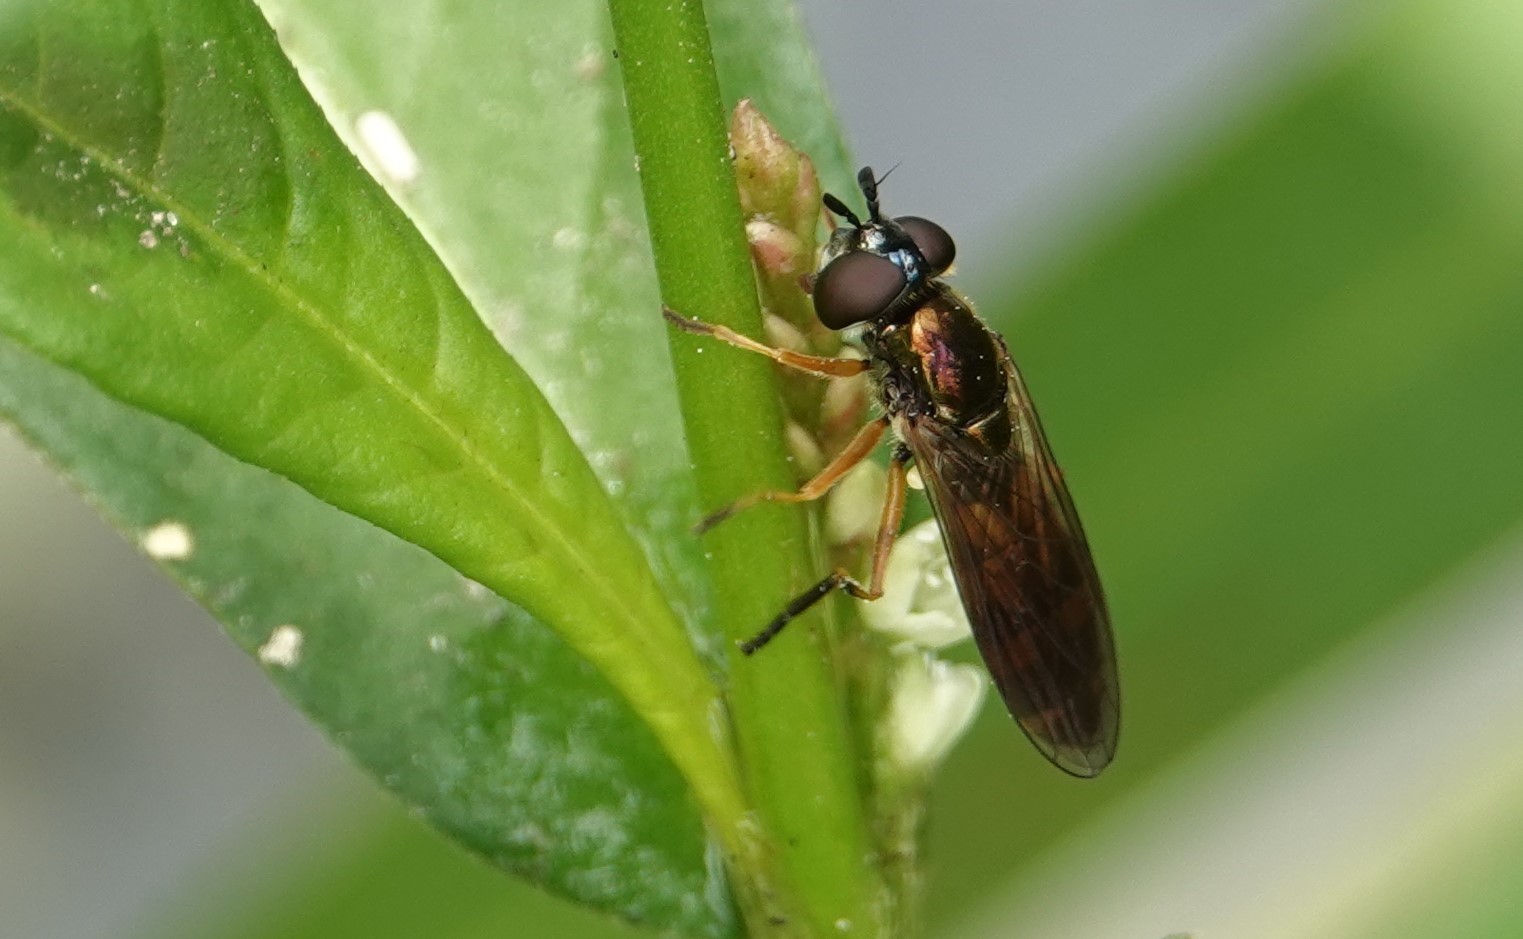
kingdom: Animalia
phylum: Arthropoda
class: Insecta
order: Diptera
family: Syrphidae
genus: Pyrophaena
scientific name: Pyrophaena granditarsa
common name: Hornhand sedgesitter
